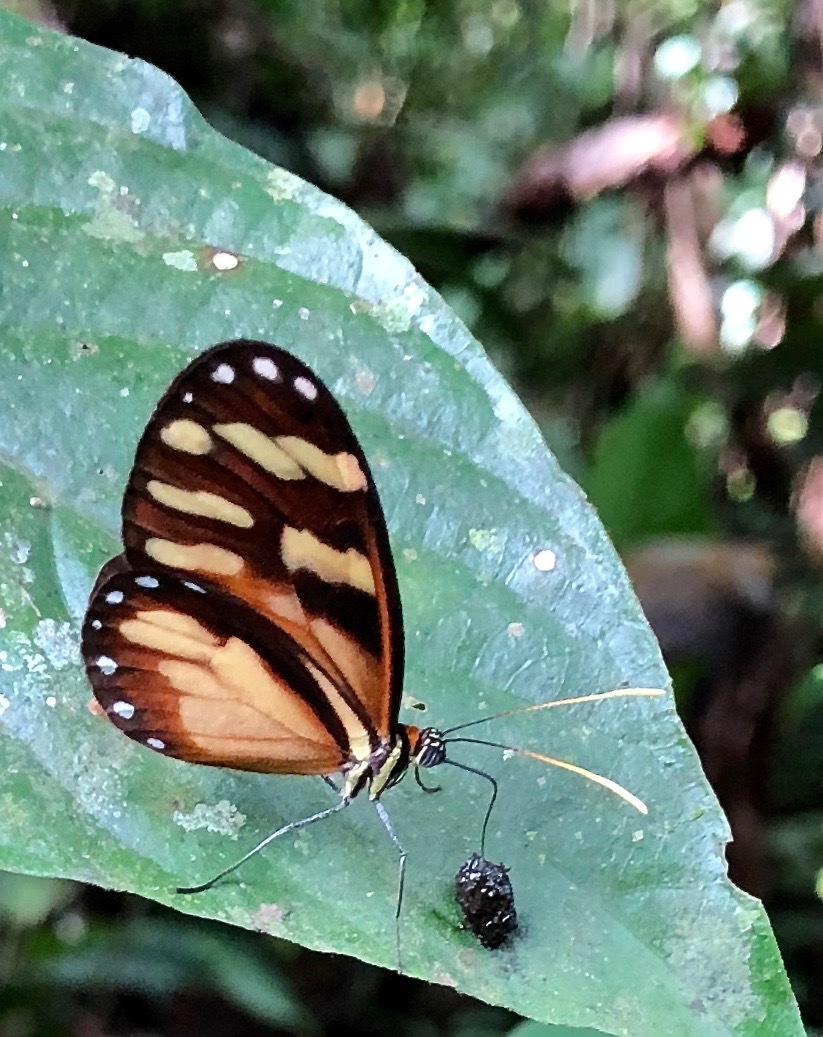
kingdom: Animalia
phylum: Arthropoda
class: Insecta
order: Lepidoptera
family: Nymphalidae
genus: Ithomia
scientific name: Ithomia heraldica
